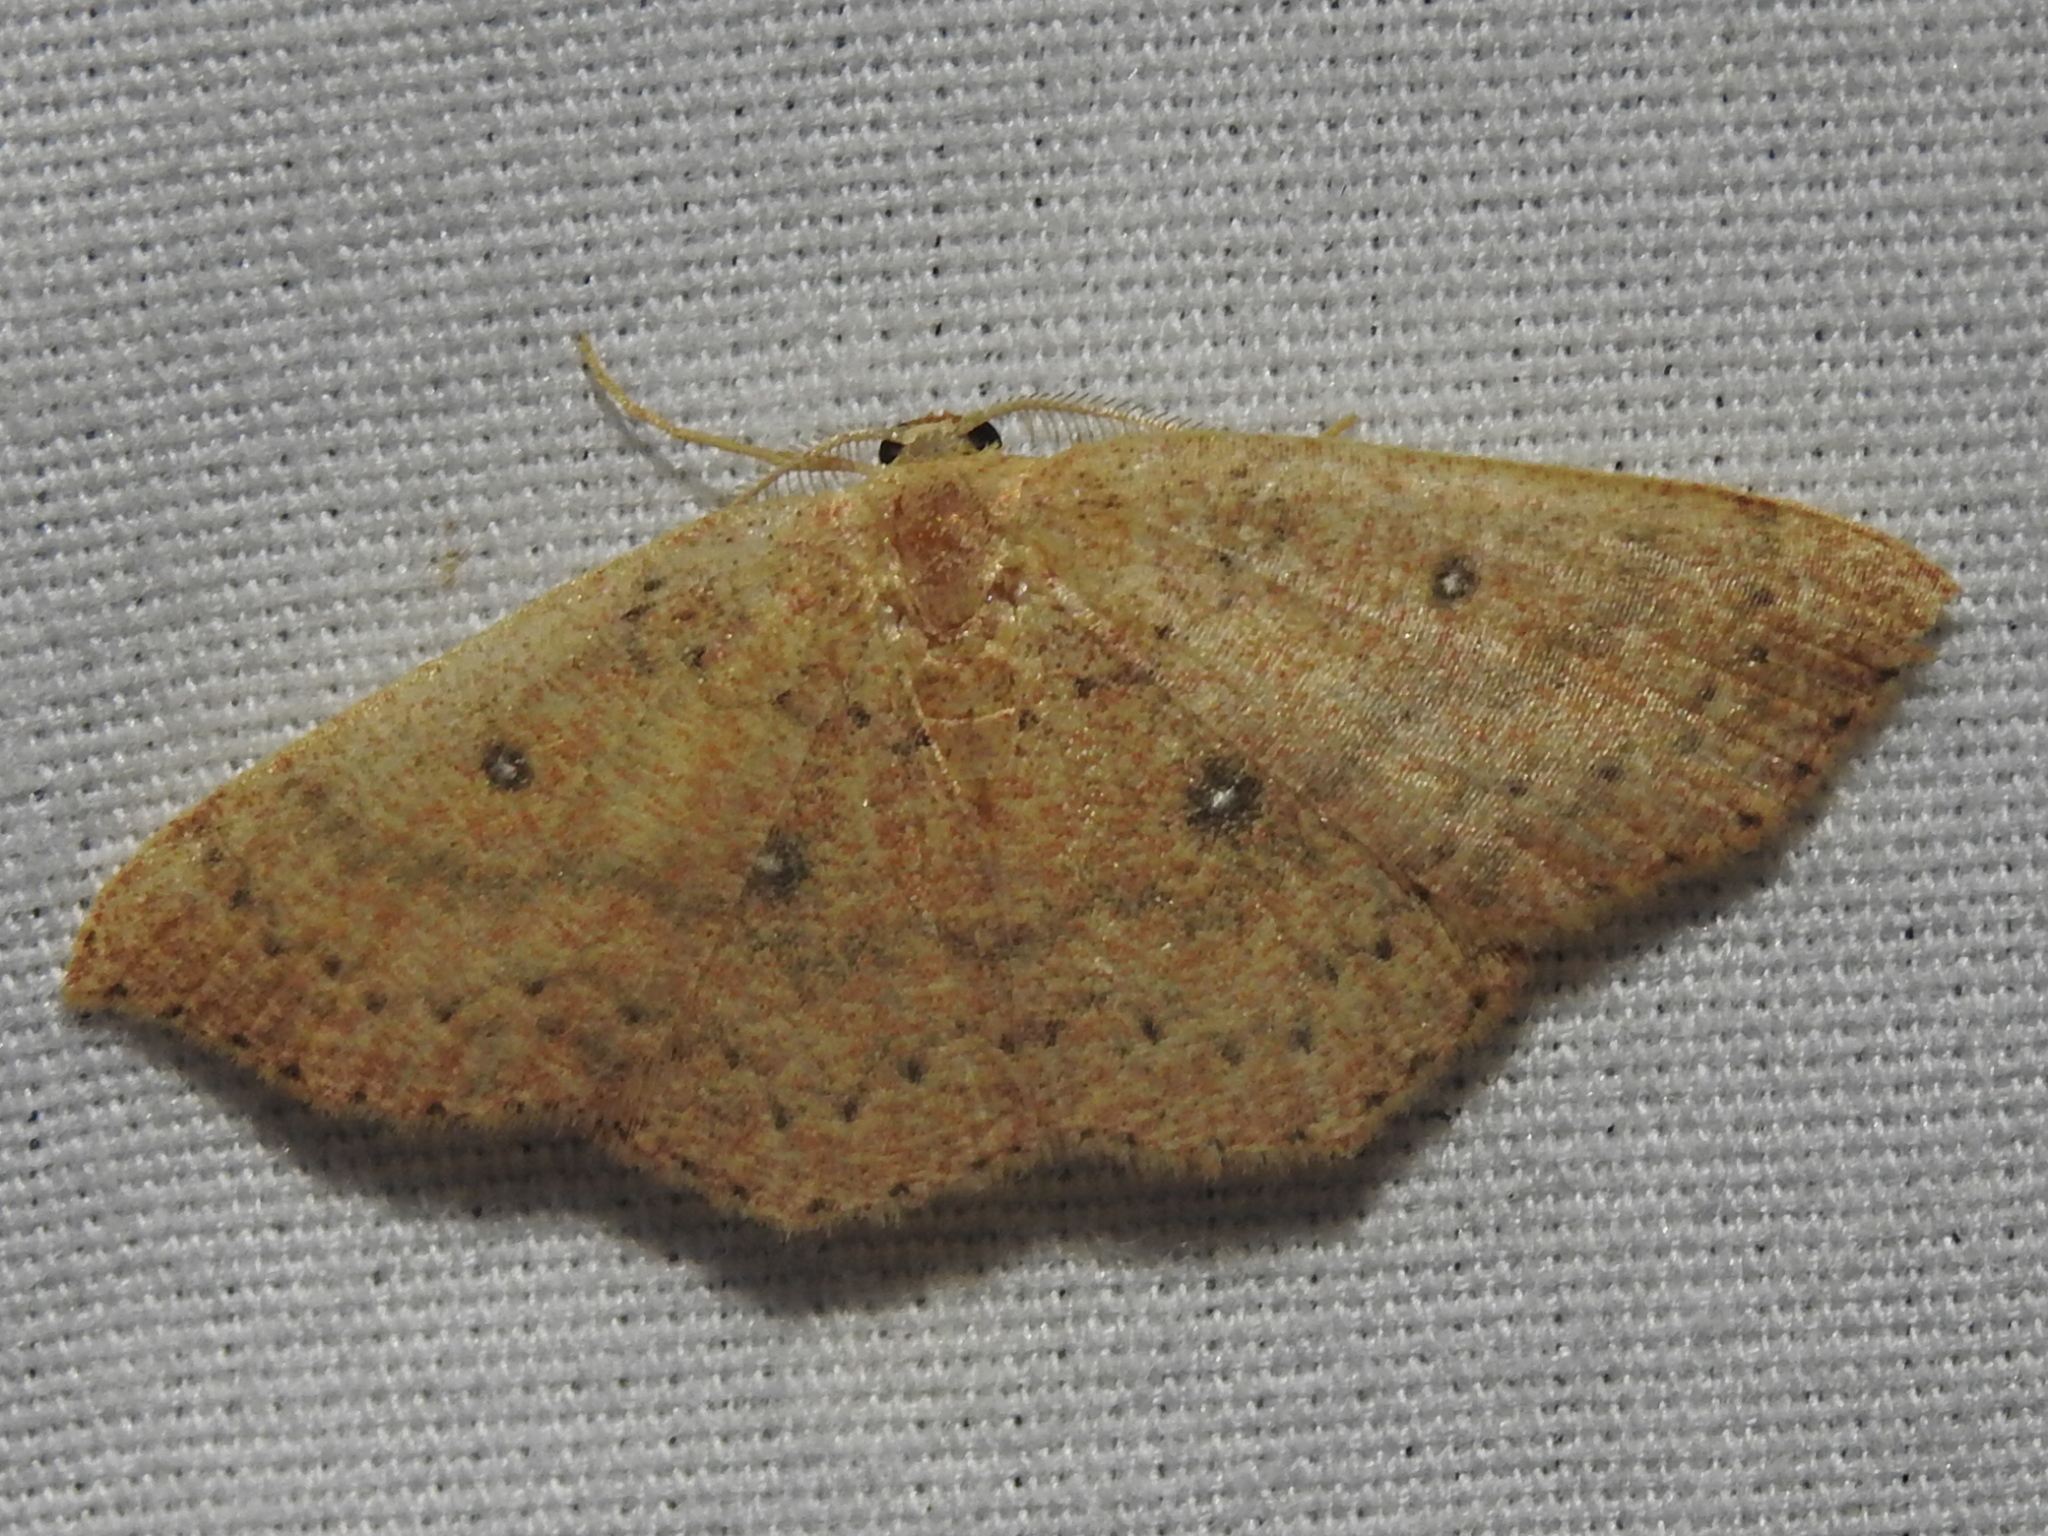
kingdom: Animalia
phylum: Arthropoda
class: Insecta
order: Lepidoptera
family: Geometridae
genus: Cyclophora
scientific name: Cyclophora packardi
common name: Packard's wave
